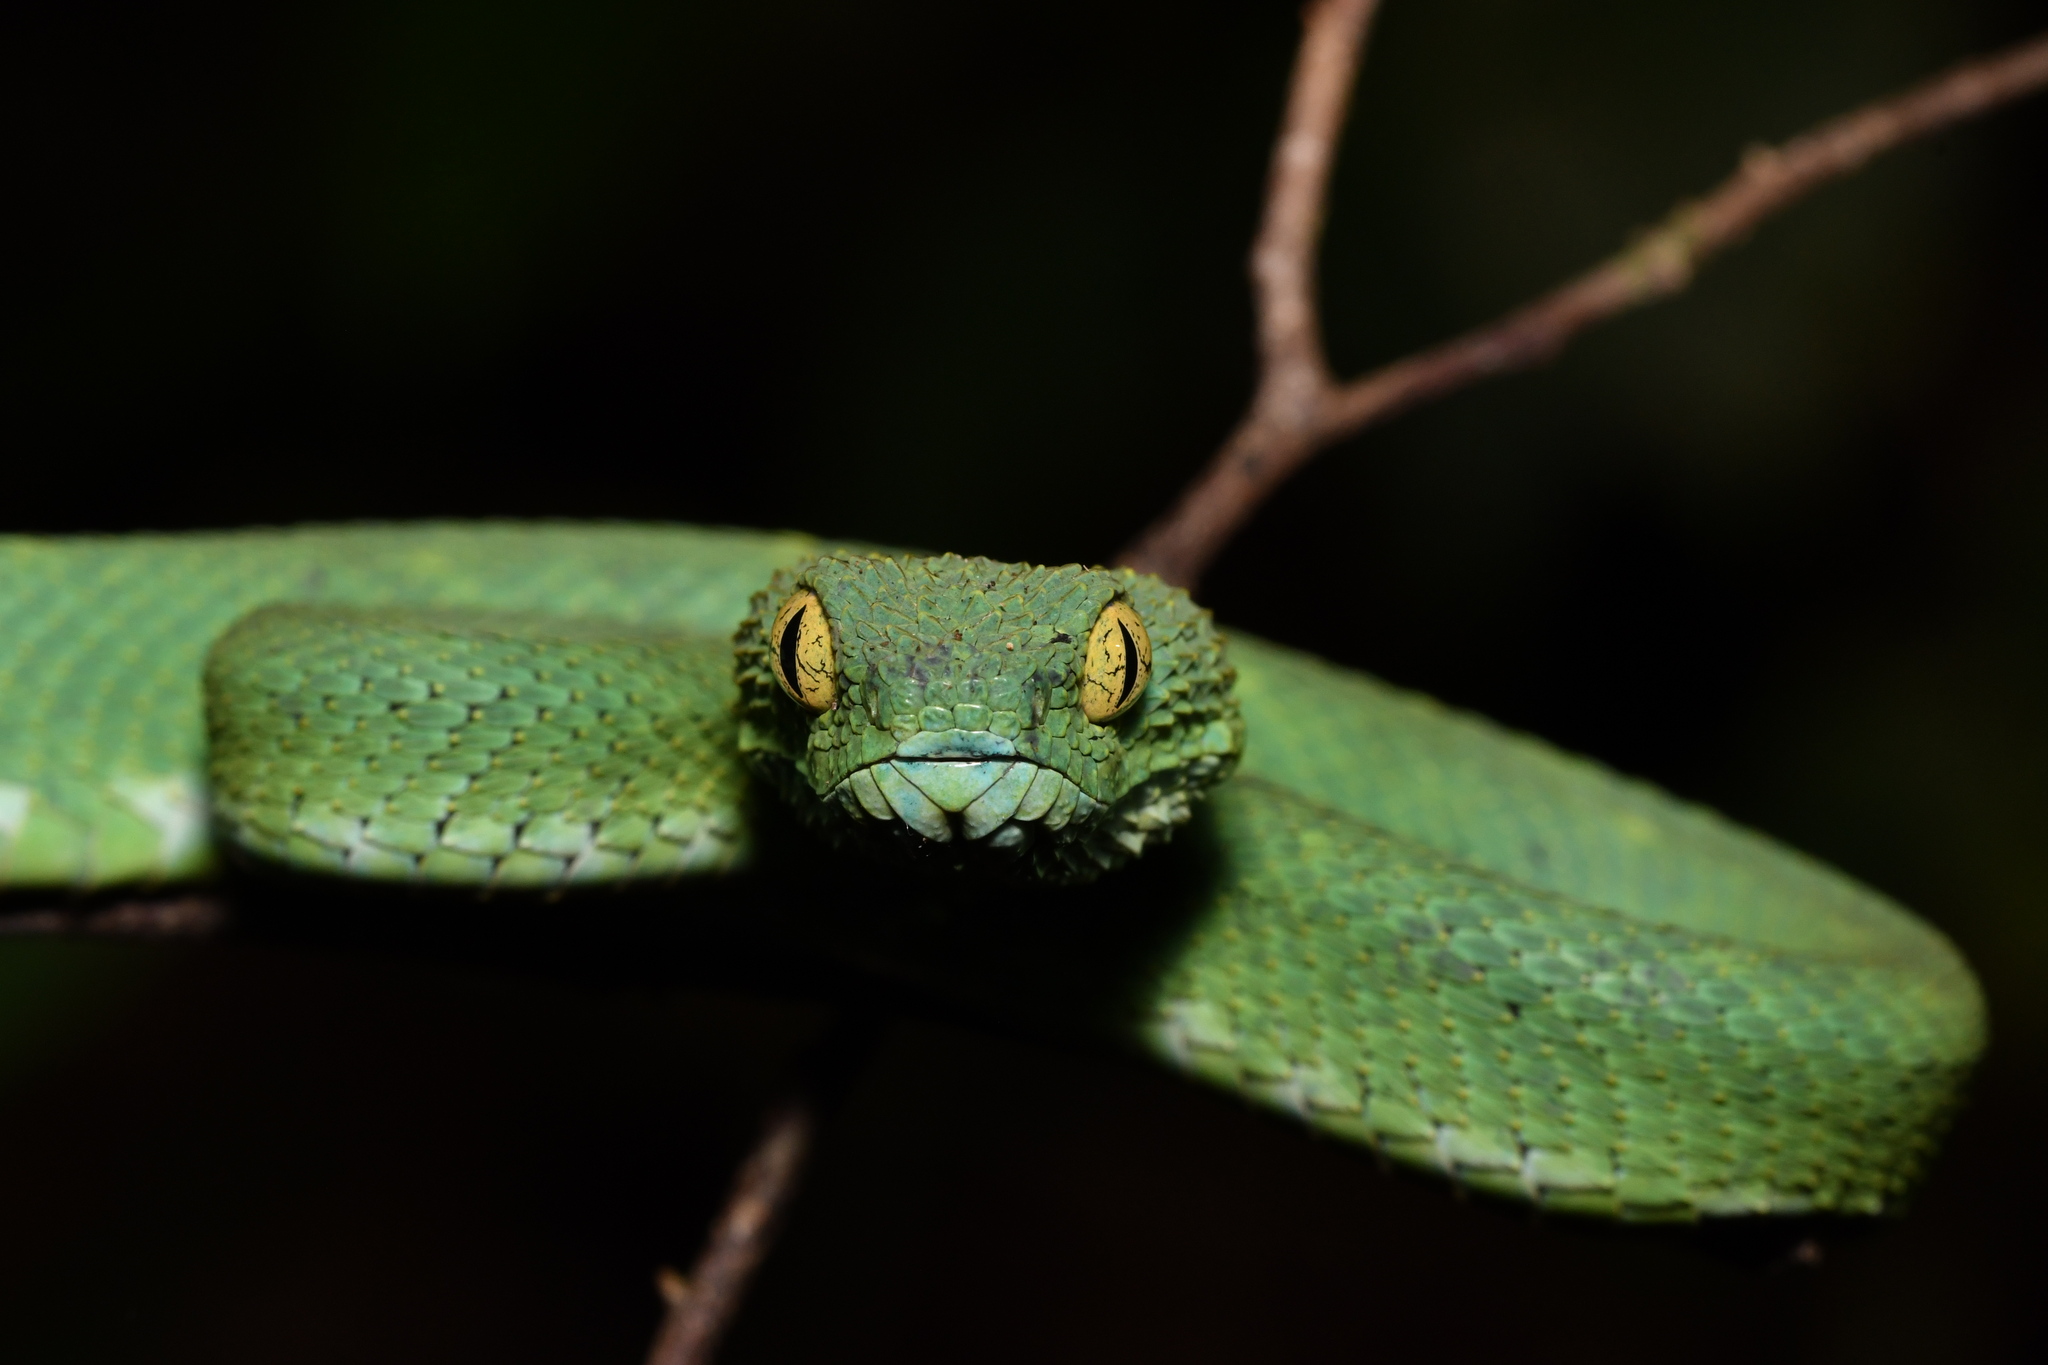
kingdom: Animalia
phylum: Chordata
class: Squamata
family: Viperidae
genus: Atheris
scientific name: Atheris chlorechis
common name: Green bush viper
